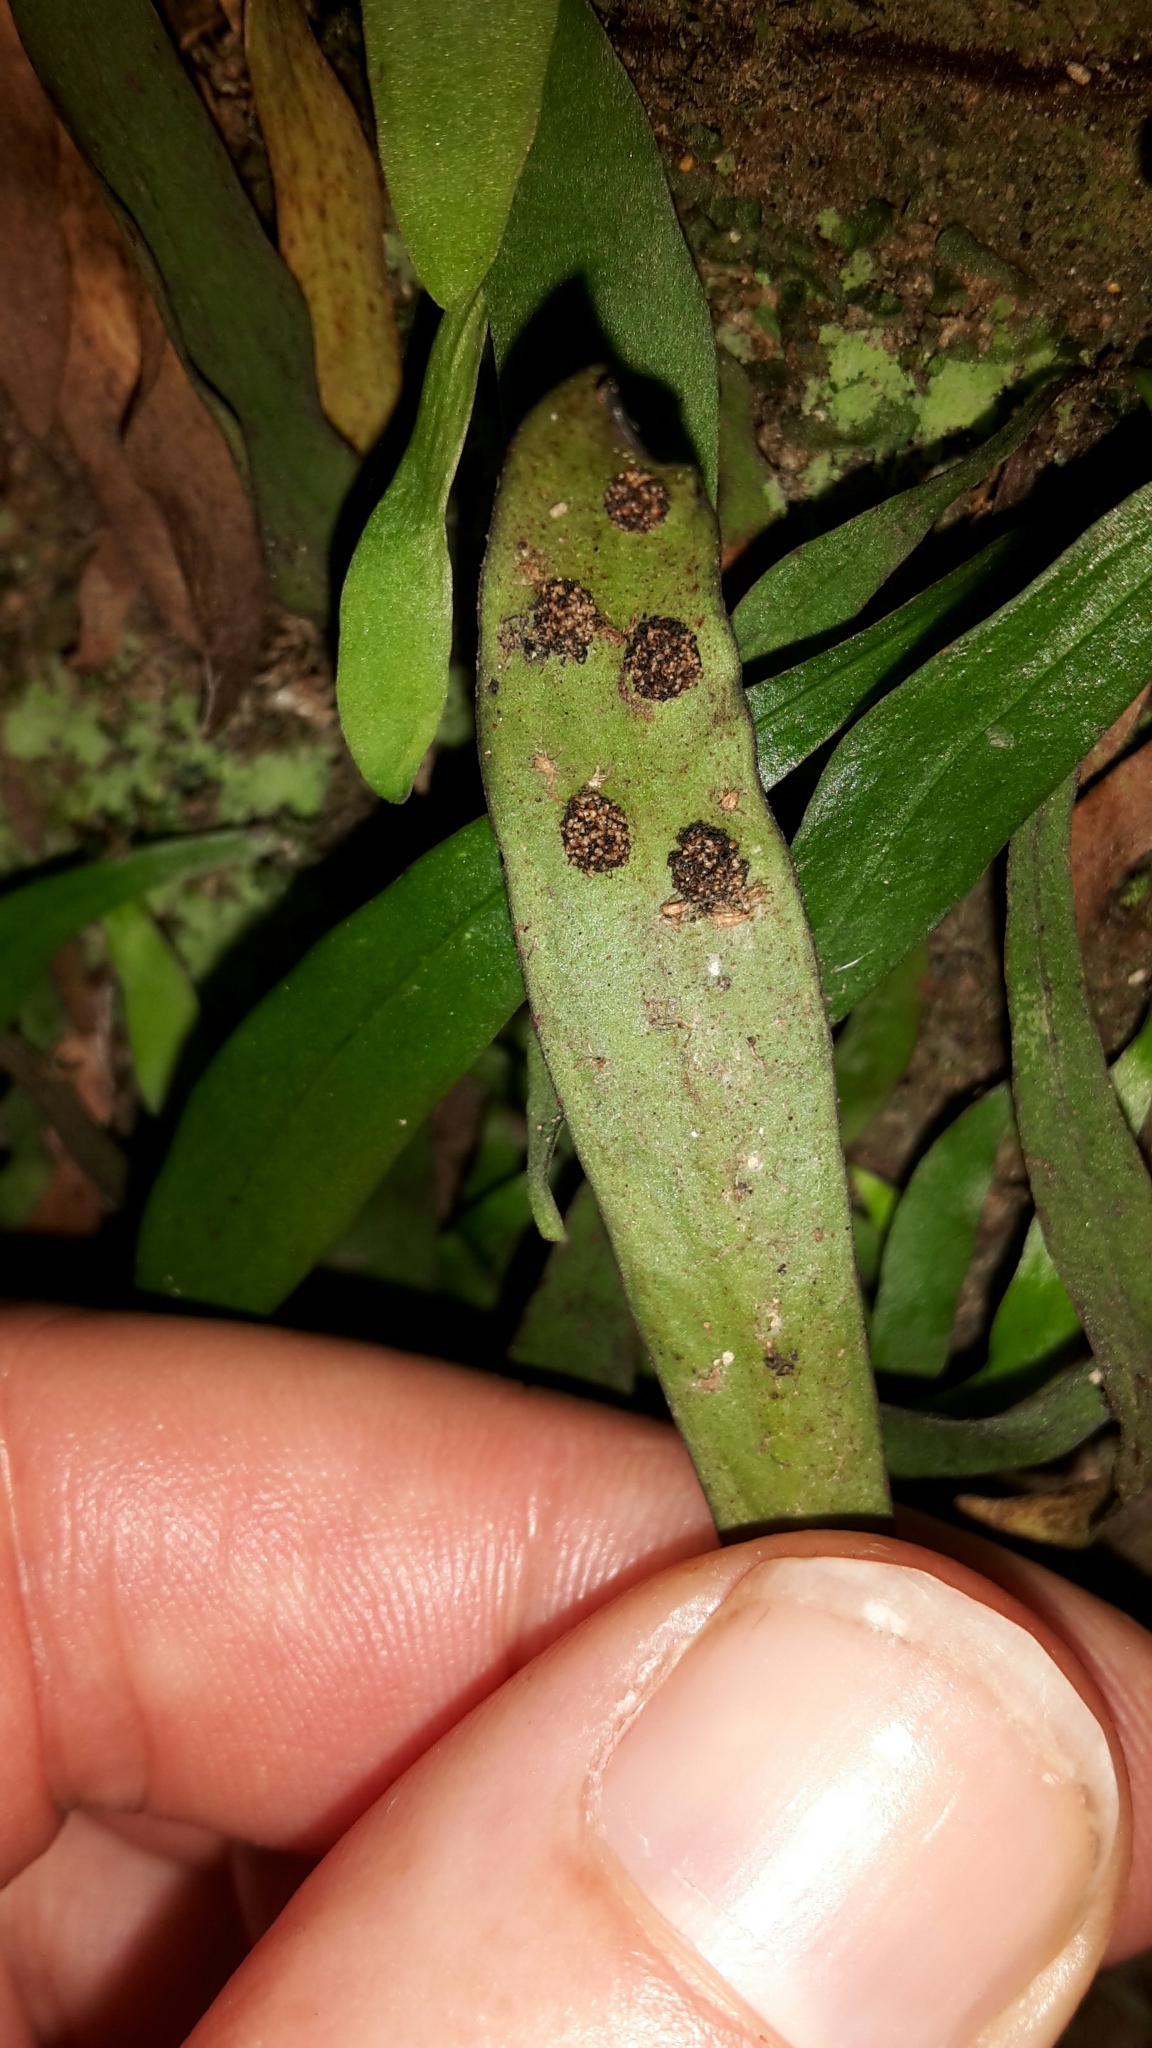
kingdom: Plantae
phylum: Tracheophyta
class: Polypodiopsida
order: Polypodiales
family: Polypodiaceae
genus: Loxogramme
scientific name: Loxogramme dictyopteris
